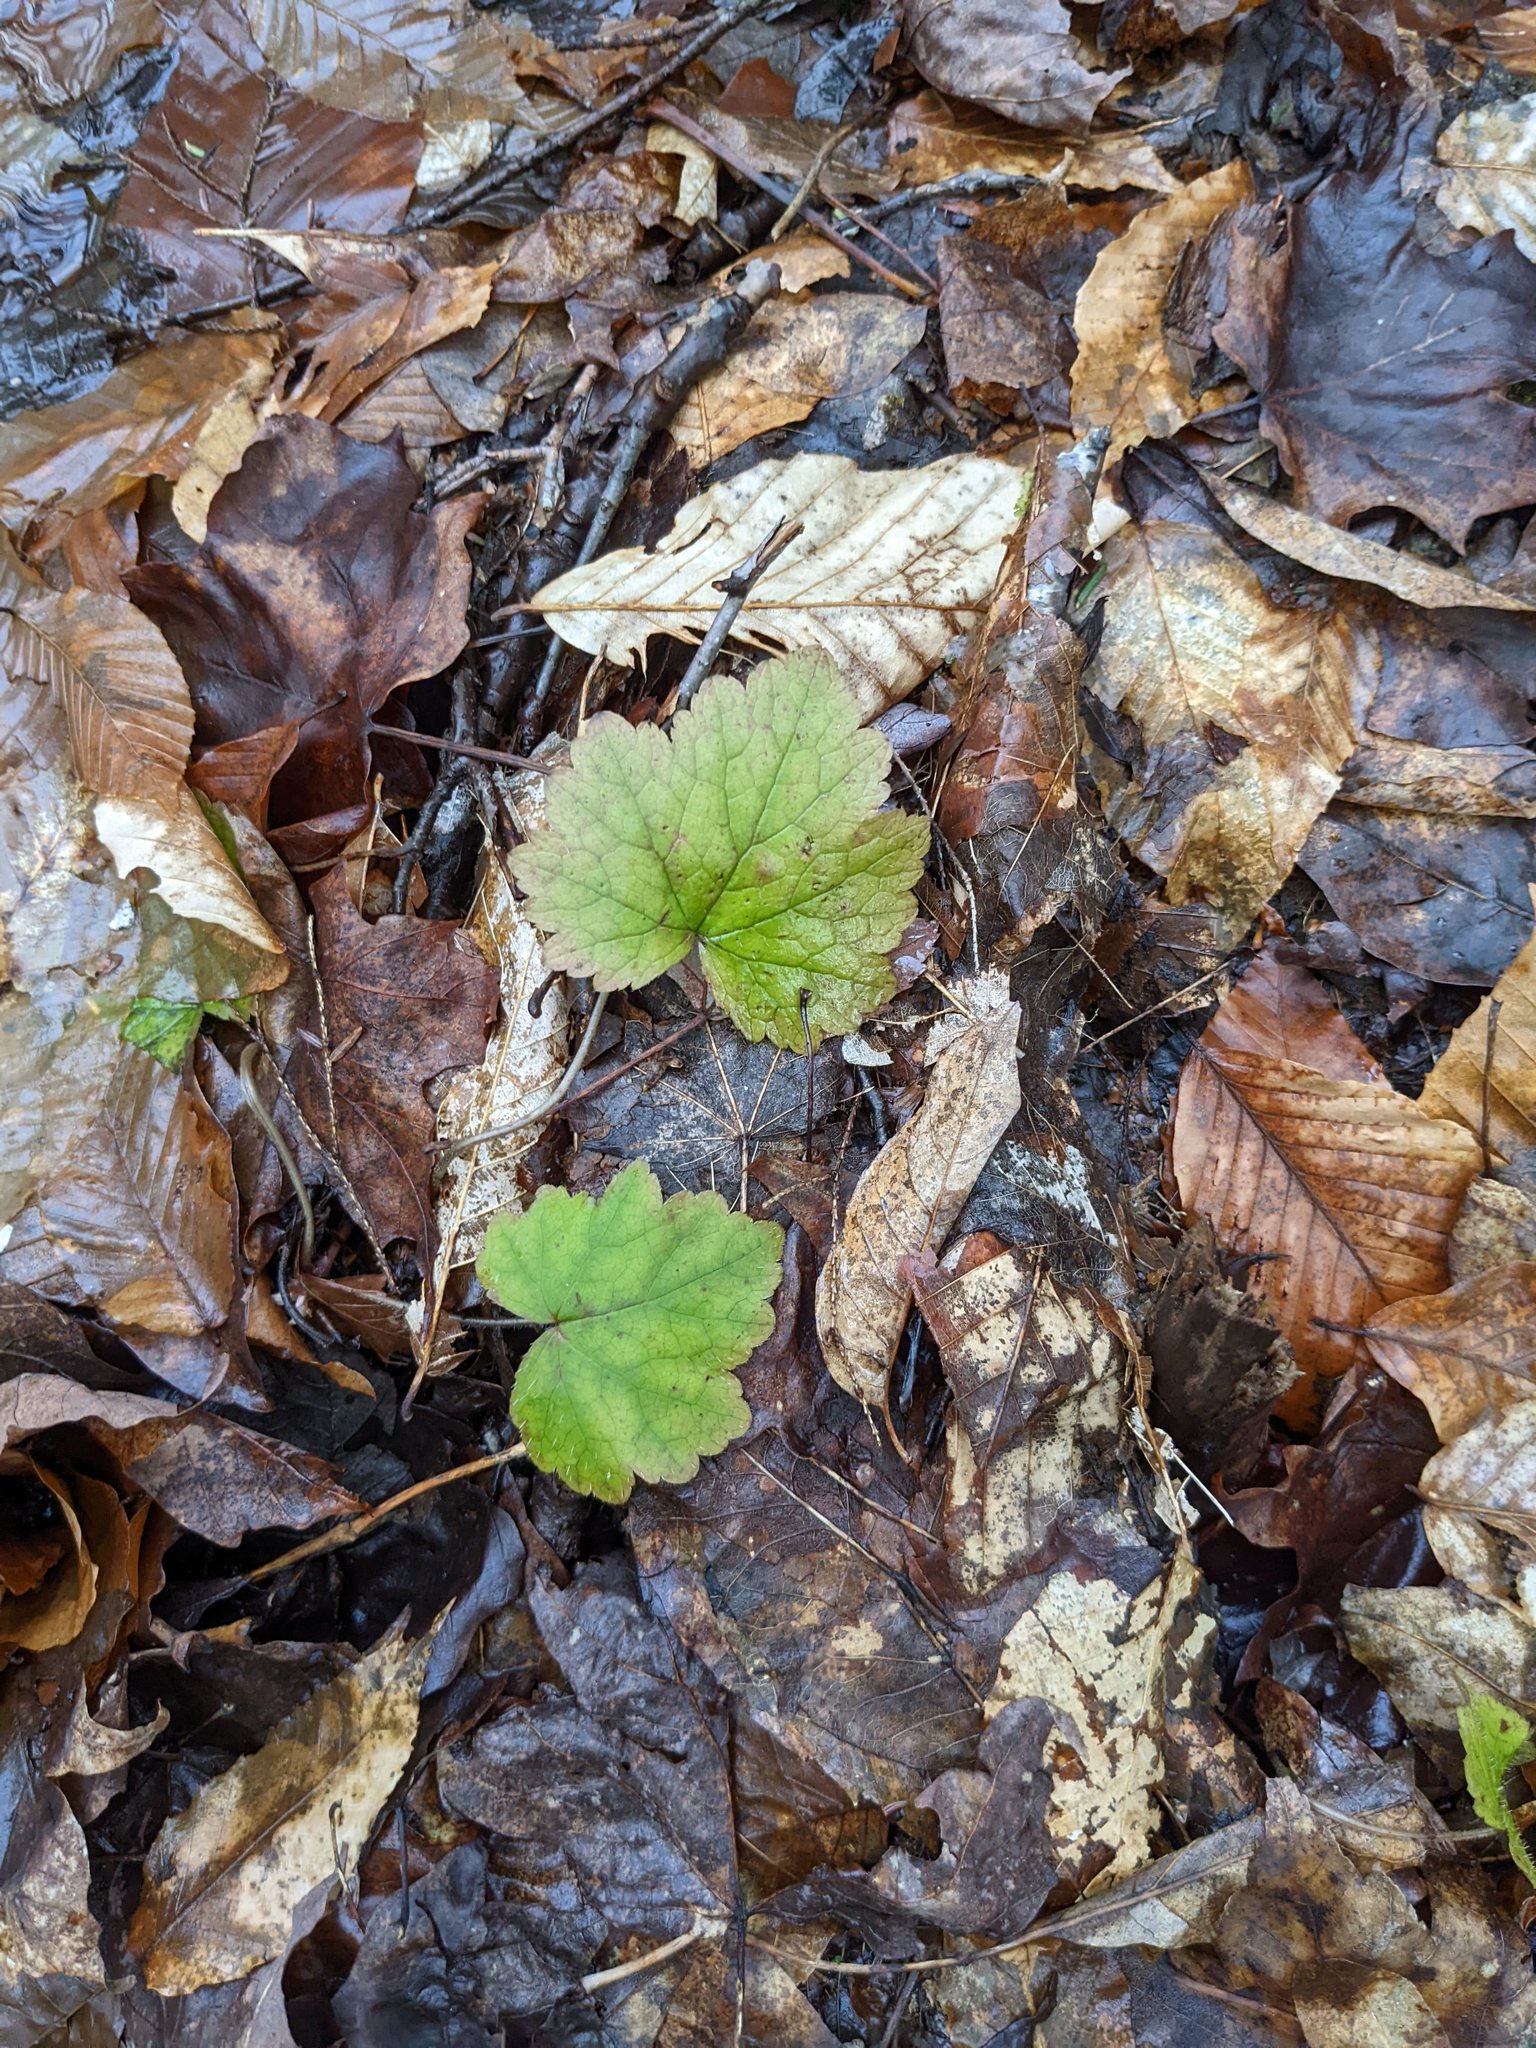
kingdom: Plantae
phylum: Tracheophyta
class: Magnoliopsida
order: Saxifragales
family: Saxifragaceae
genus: Tiarella
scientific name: Tiarella stolonifera
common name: Stoloniferous foamflower
